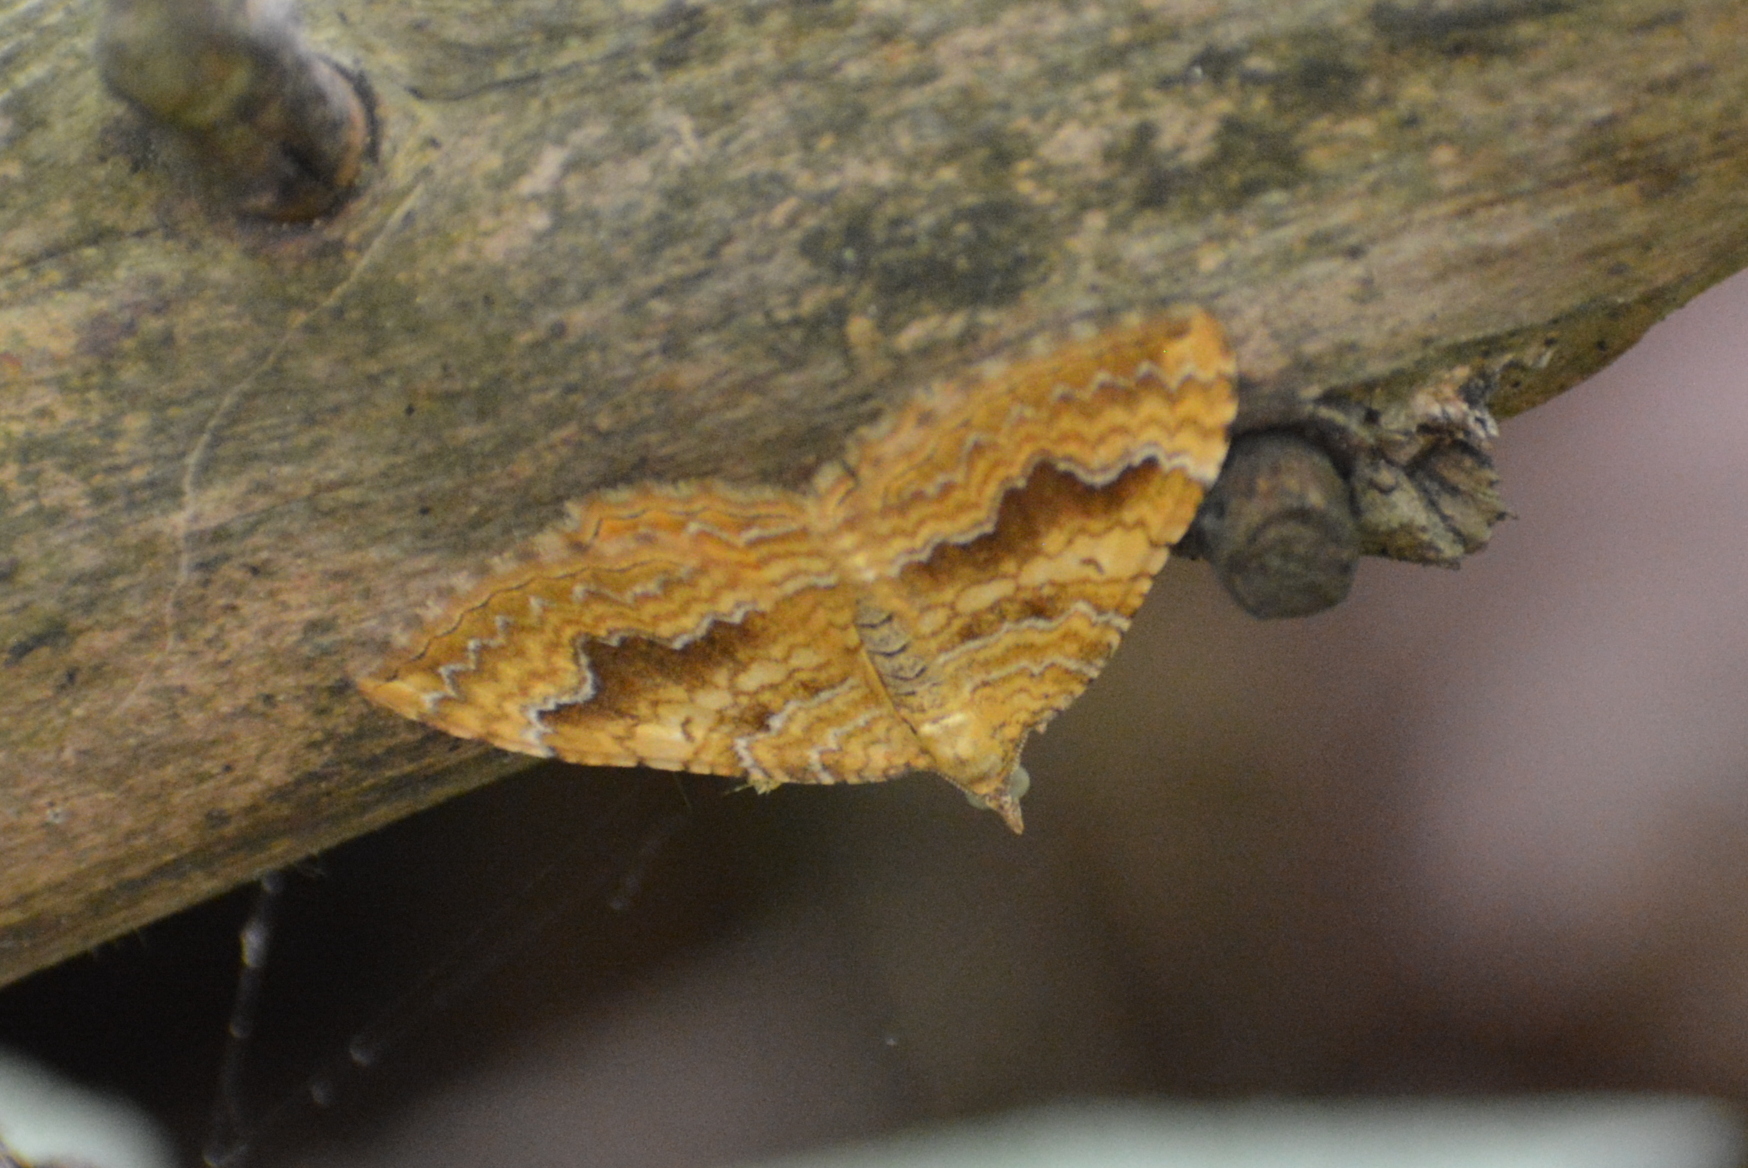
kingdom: Animalia
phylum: Arthropoda
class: Insecta
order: Lepidoptera
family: Geometridae
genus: Camptogramma
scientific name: Camptogramma bilineata
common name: Yellow shell
